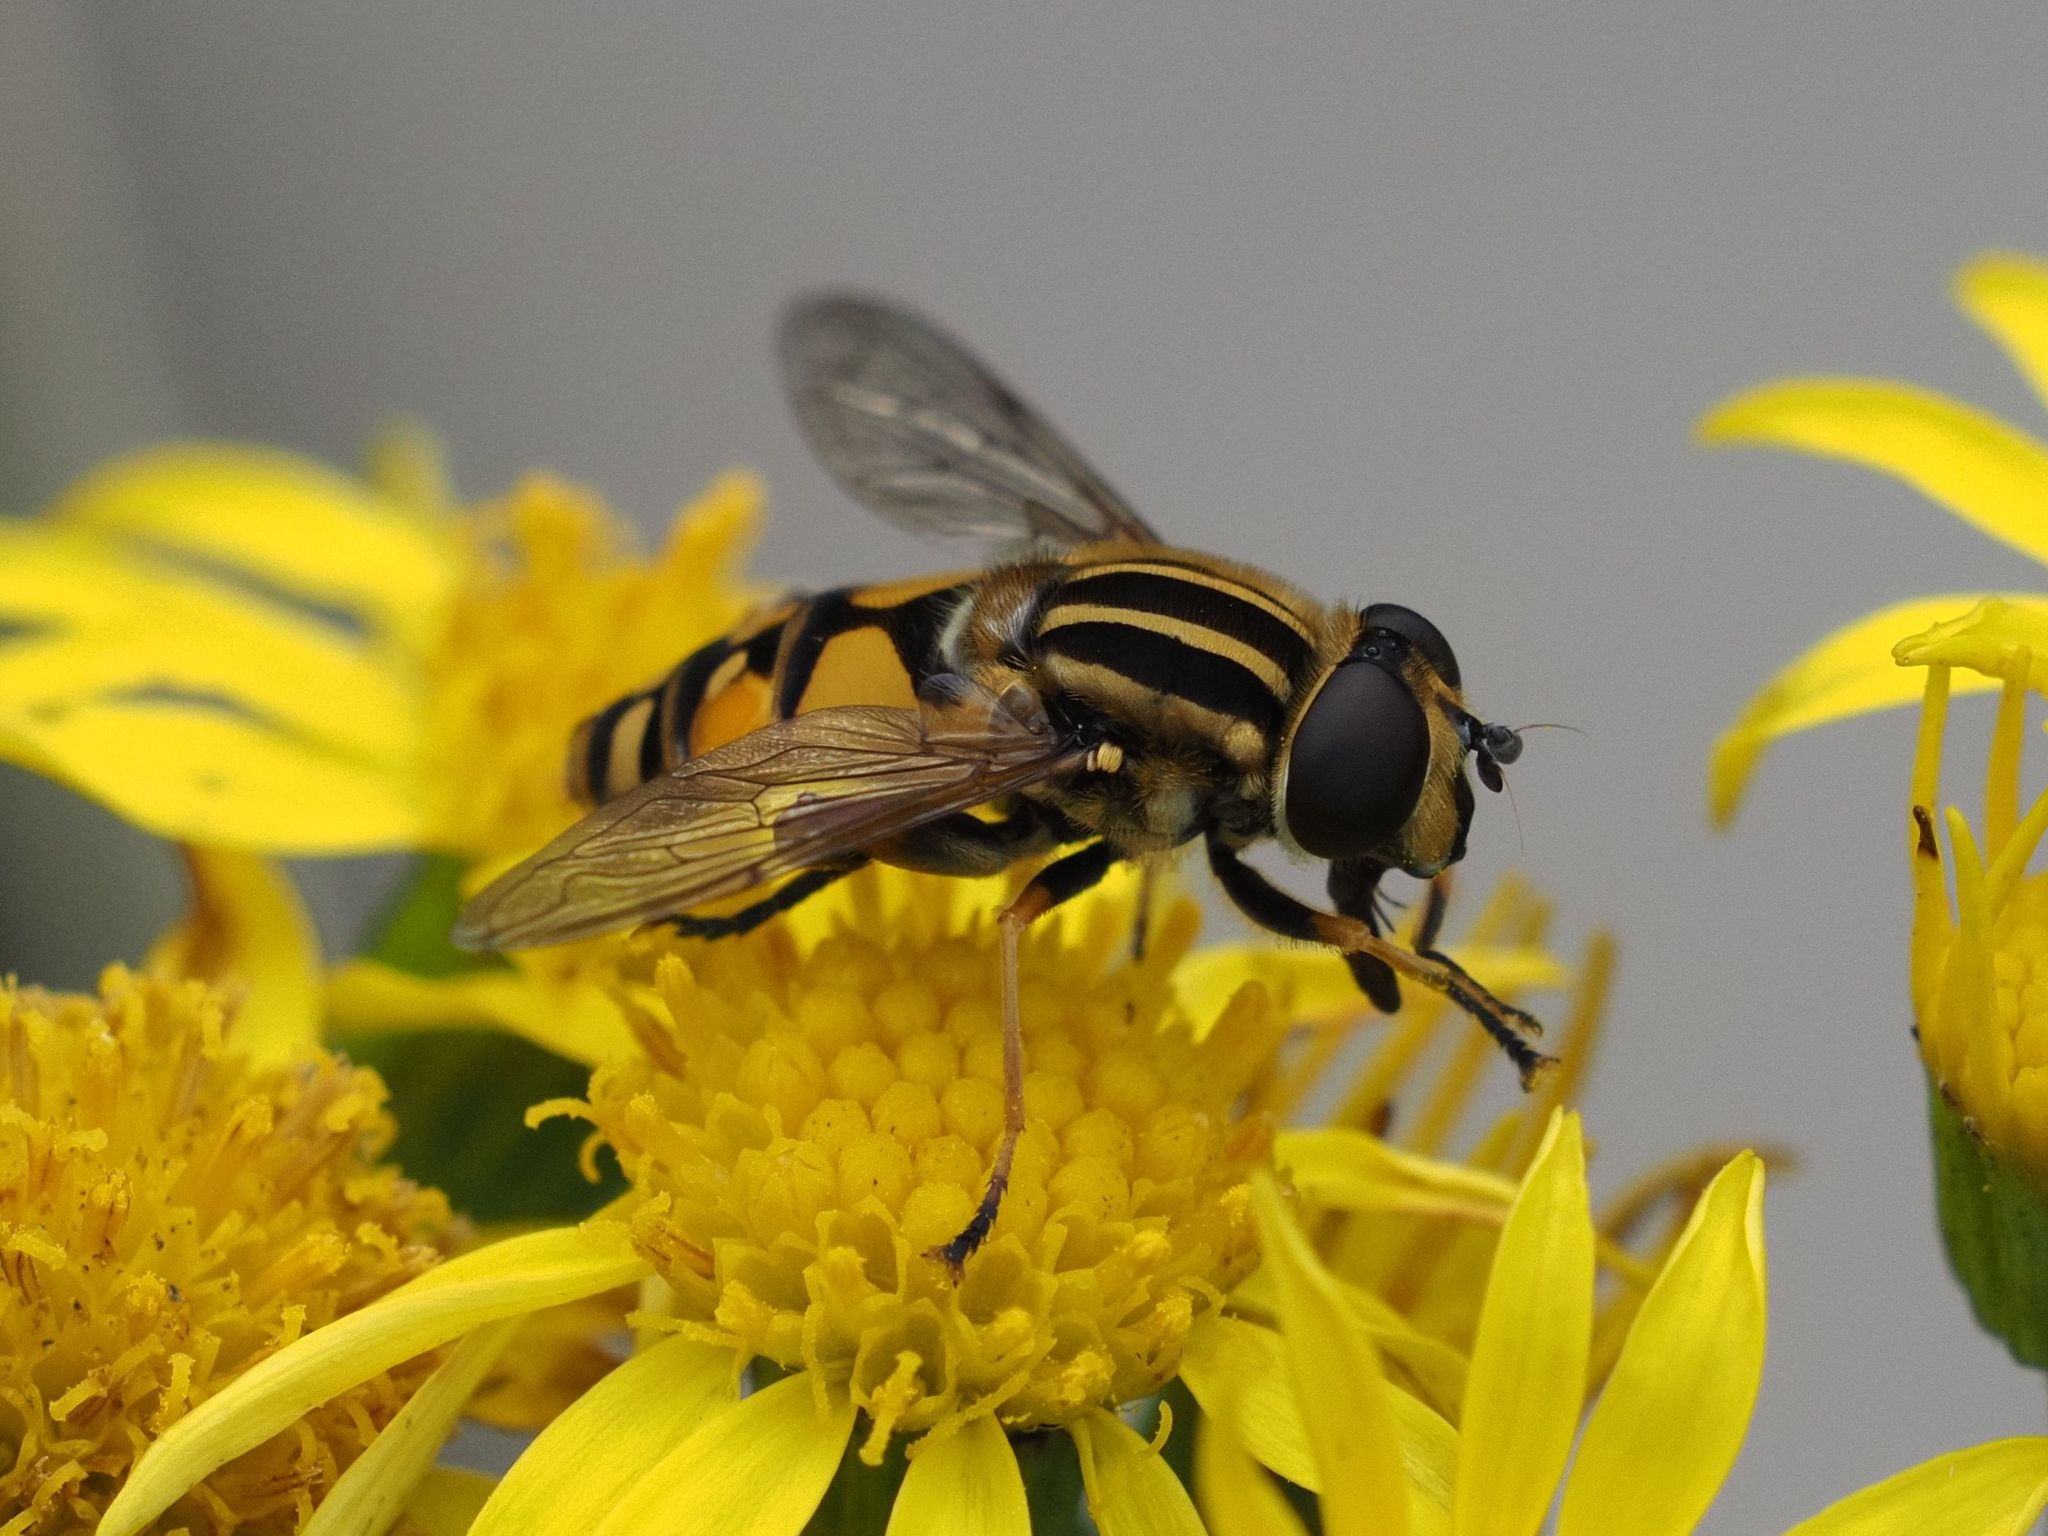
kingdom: Animalia
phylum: Arthropoda
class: Insecta
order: Diptera
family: Syrphidae
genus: Helophilus
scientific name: Helophilus pendulus
